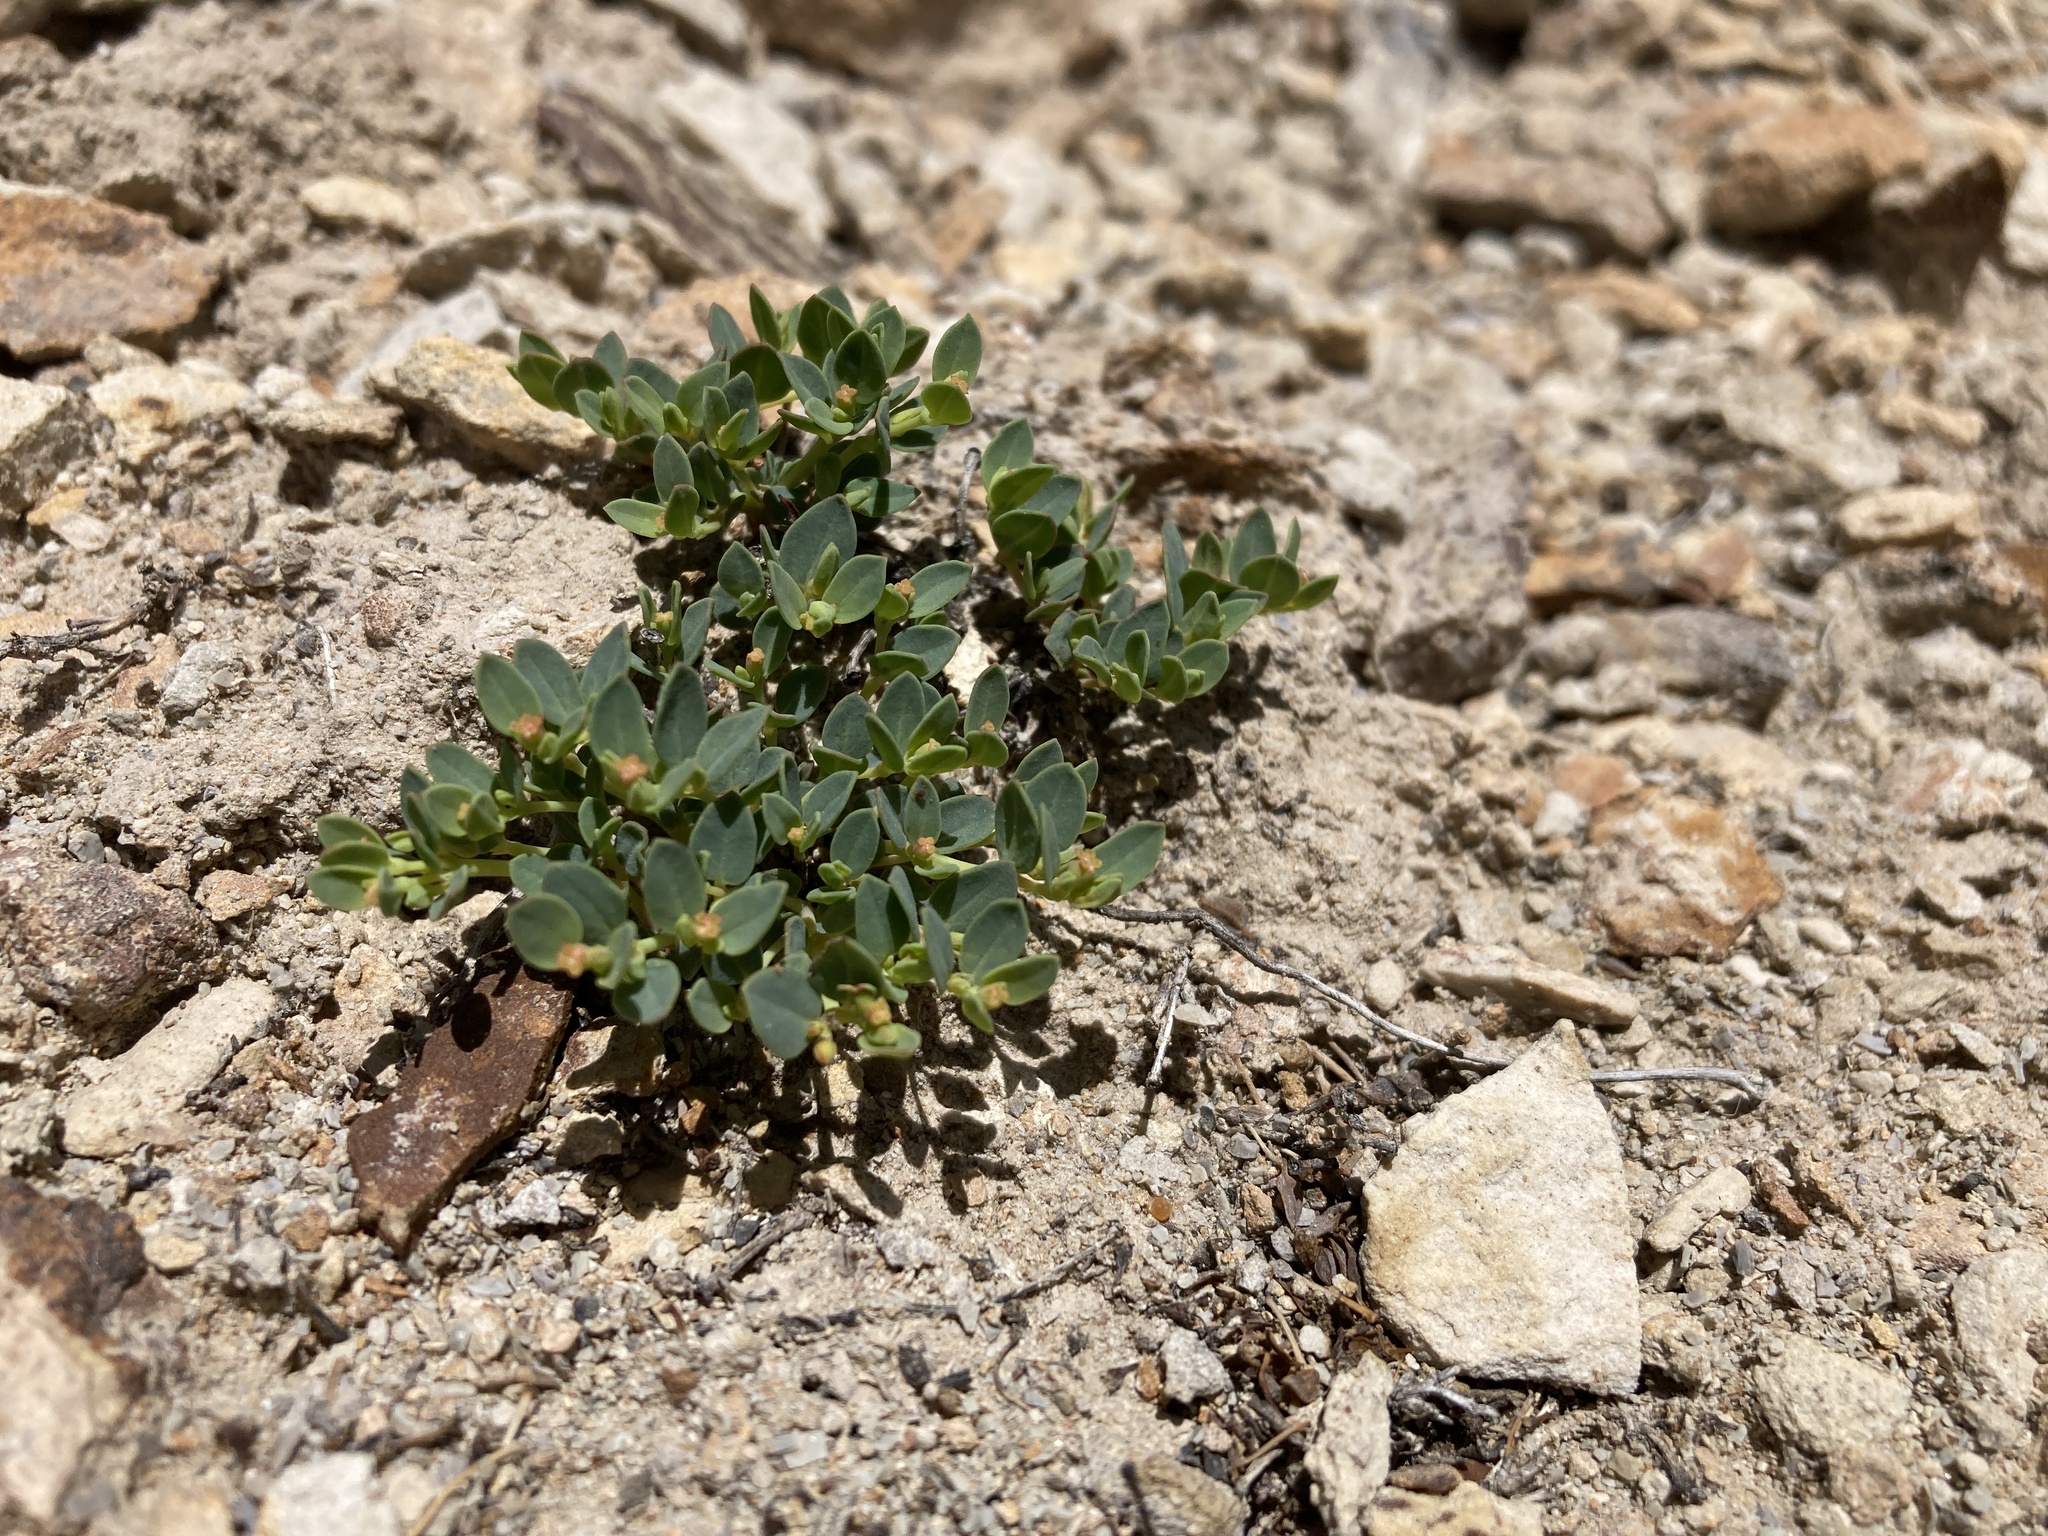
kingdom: Plantae
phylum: Tracheophyta
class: Magnoliopsida
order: Malpighiales
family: Euphorbiaceae
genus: Euphorbia
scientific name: Euphorbia fendleri
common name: Fendler's euphorbia
